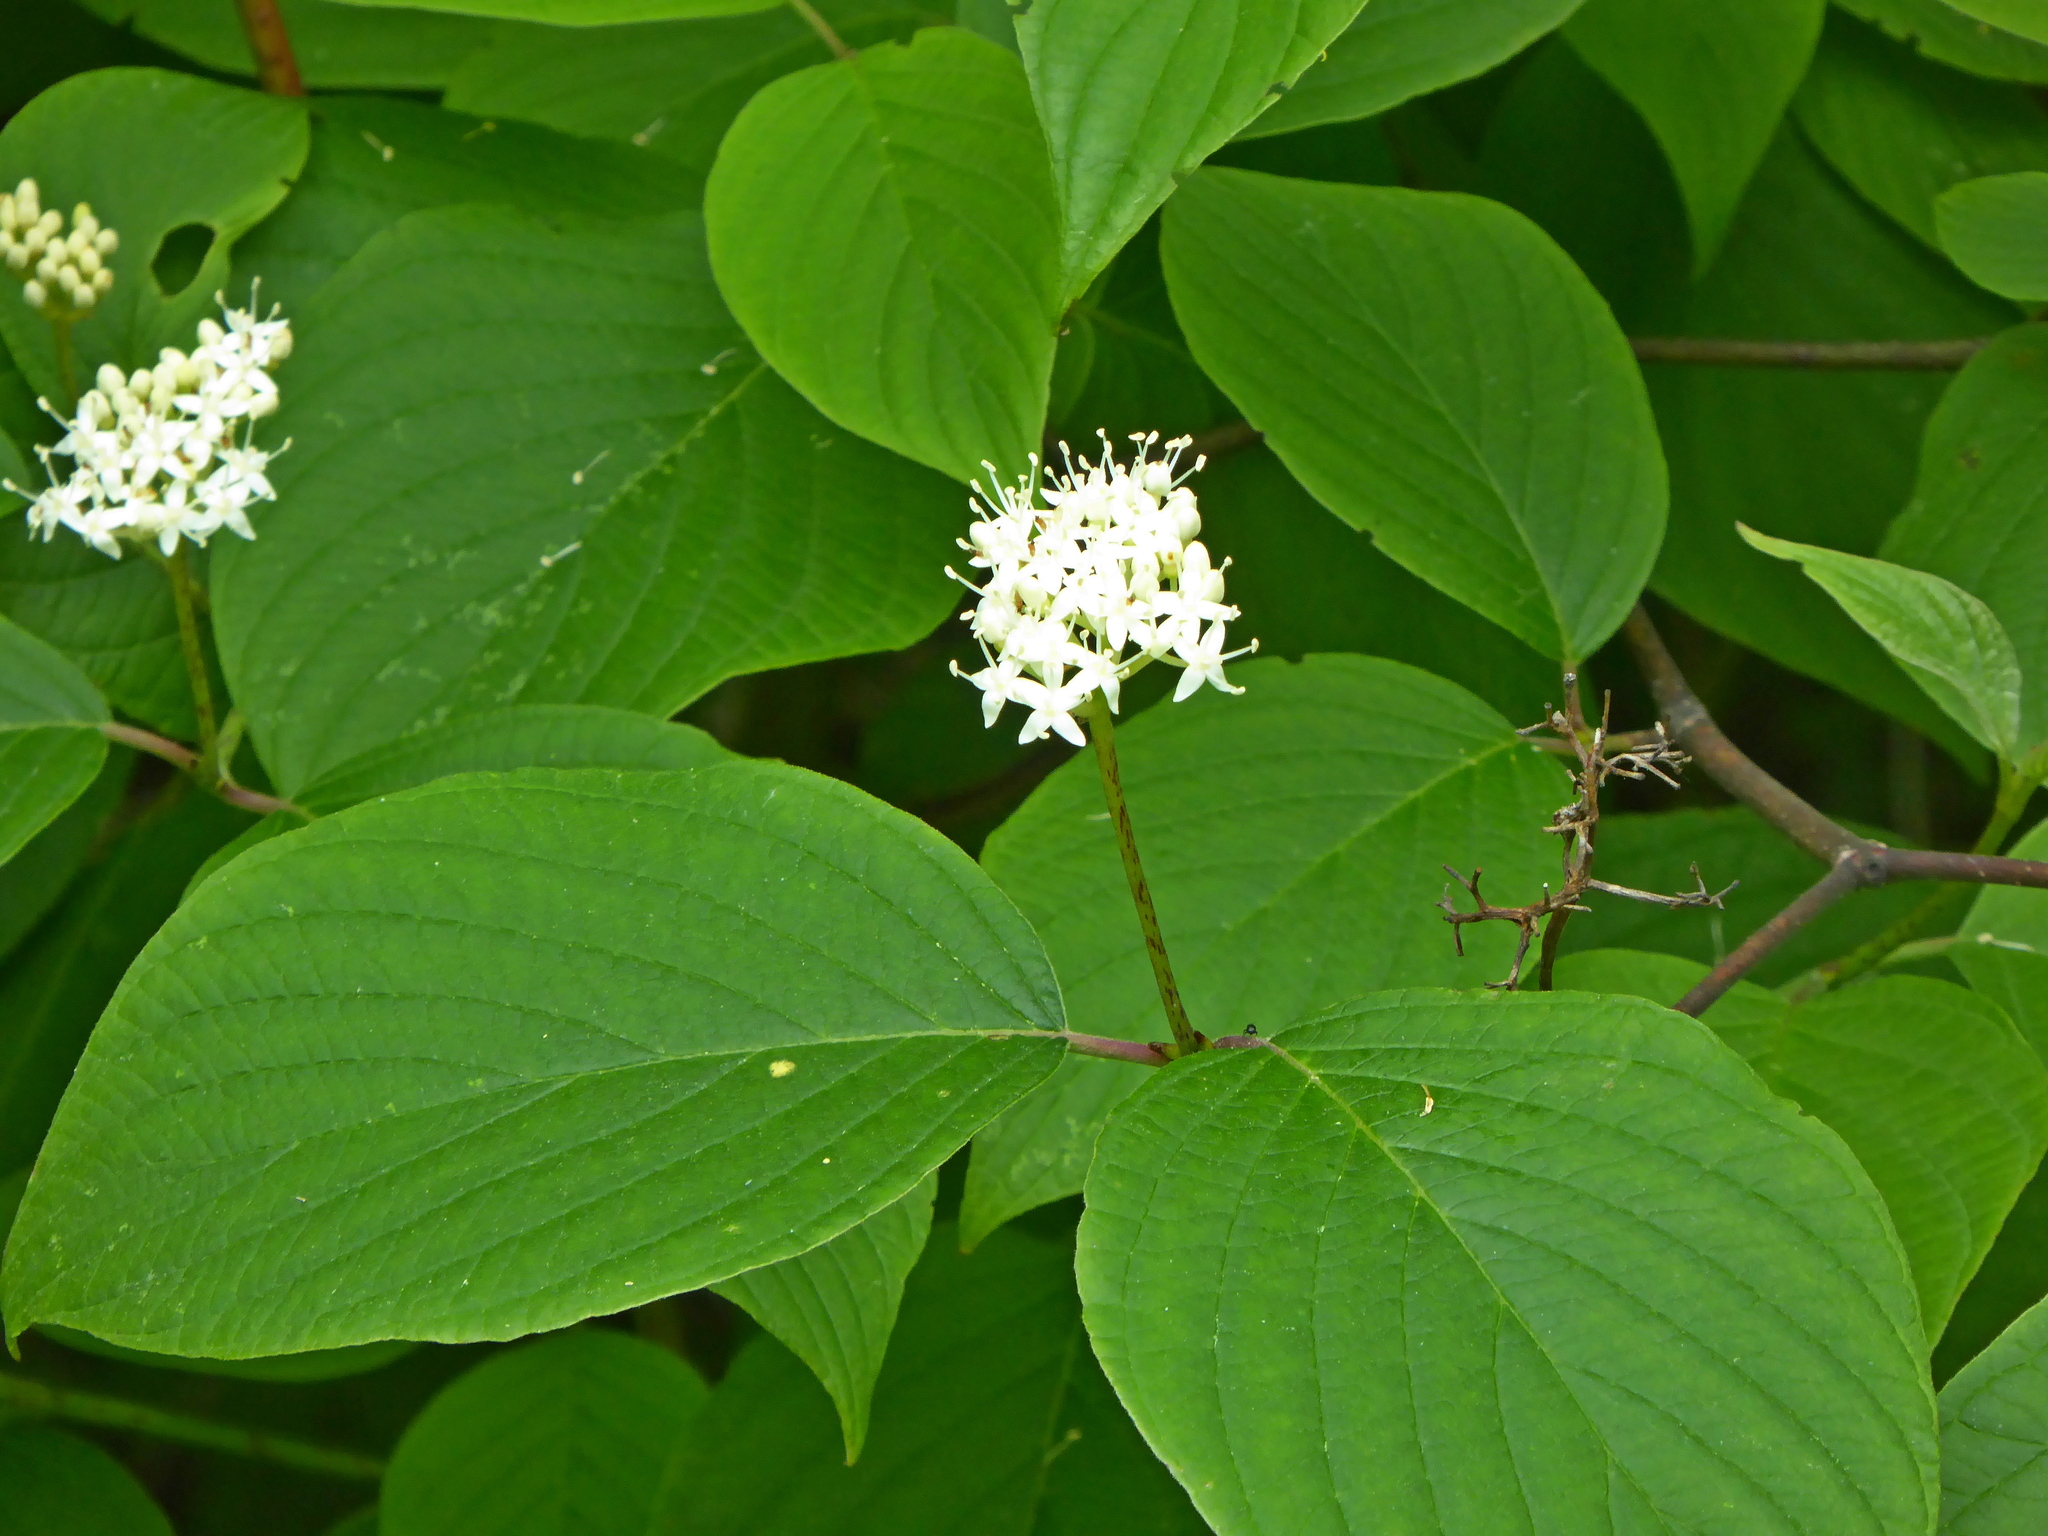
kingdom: Plantae
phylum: Tracheophyta
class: Magnoliopsida
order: Cornales
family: Cornaceae
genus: Cornus
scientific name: Cornus rugosa
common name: Round-leaf dogwood
